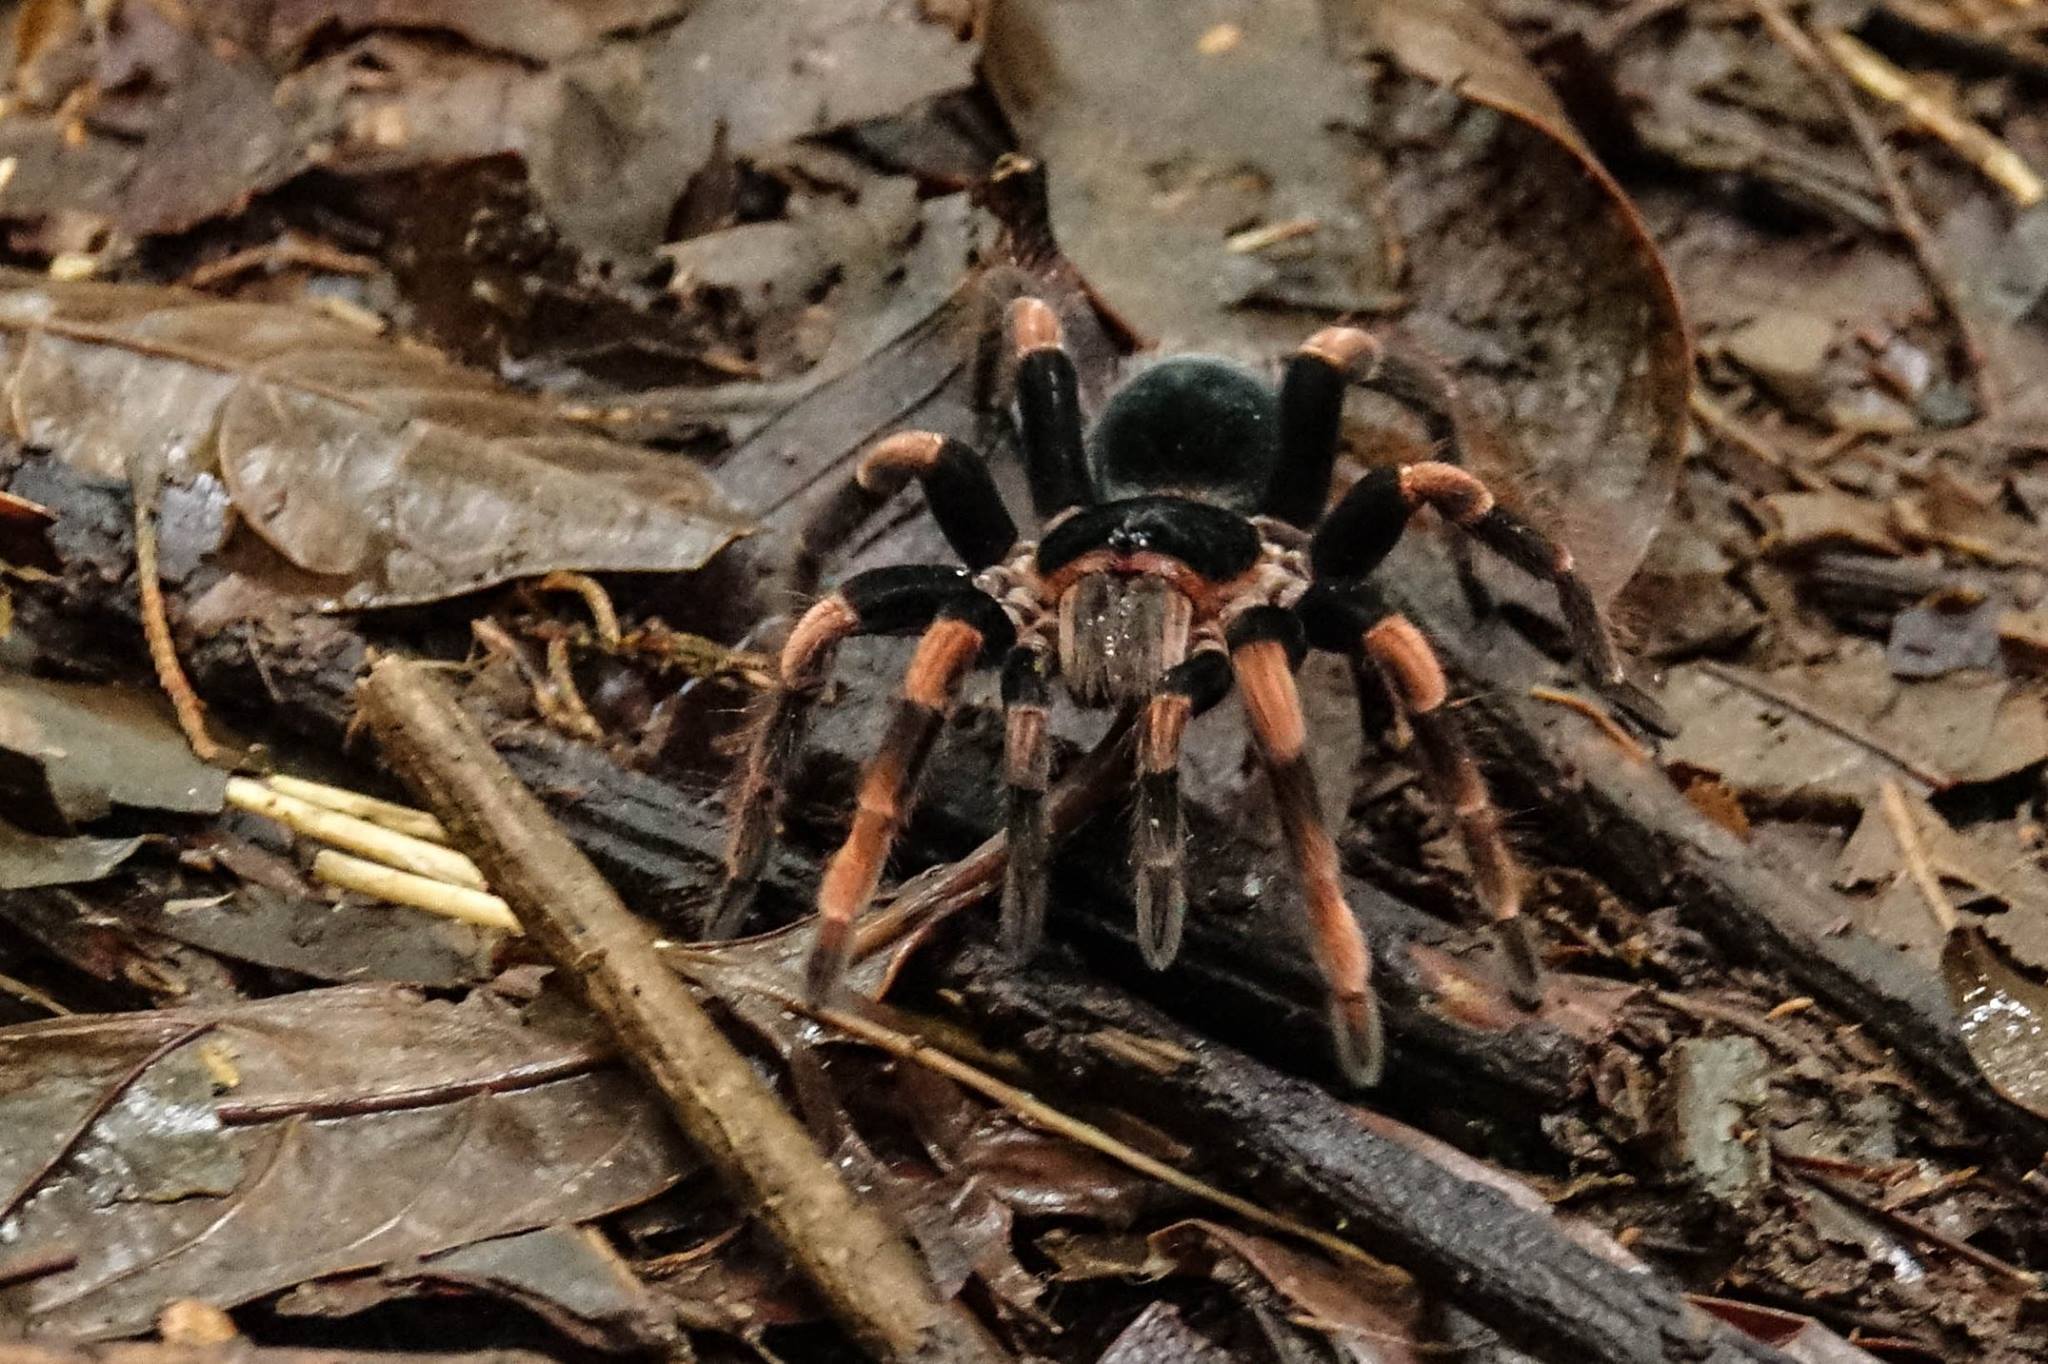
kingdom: Animalia
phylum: Arthropoda
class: Arachnida
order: Araneae
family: Theraphosidae
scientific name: Theraphosidae
